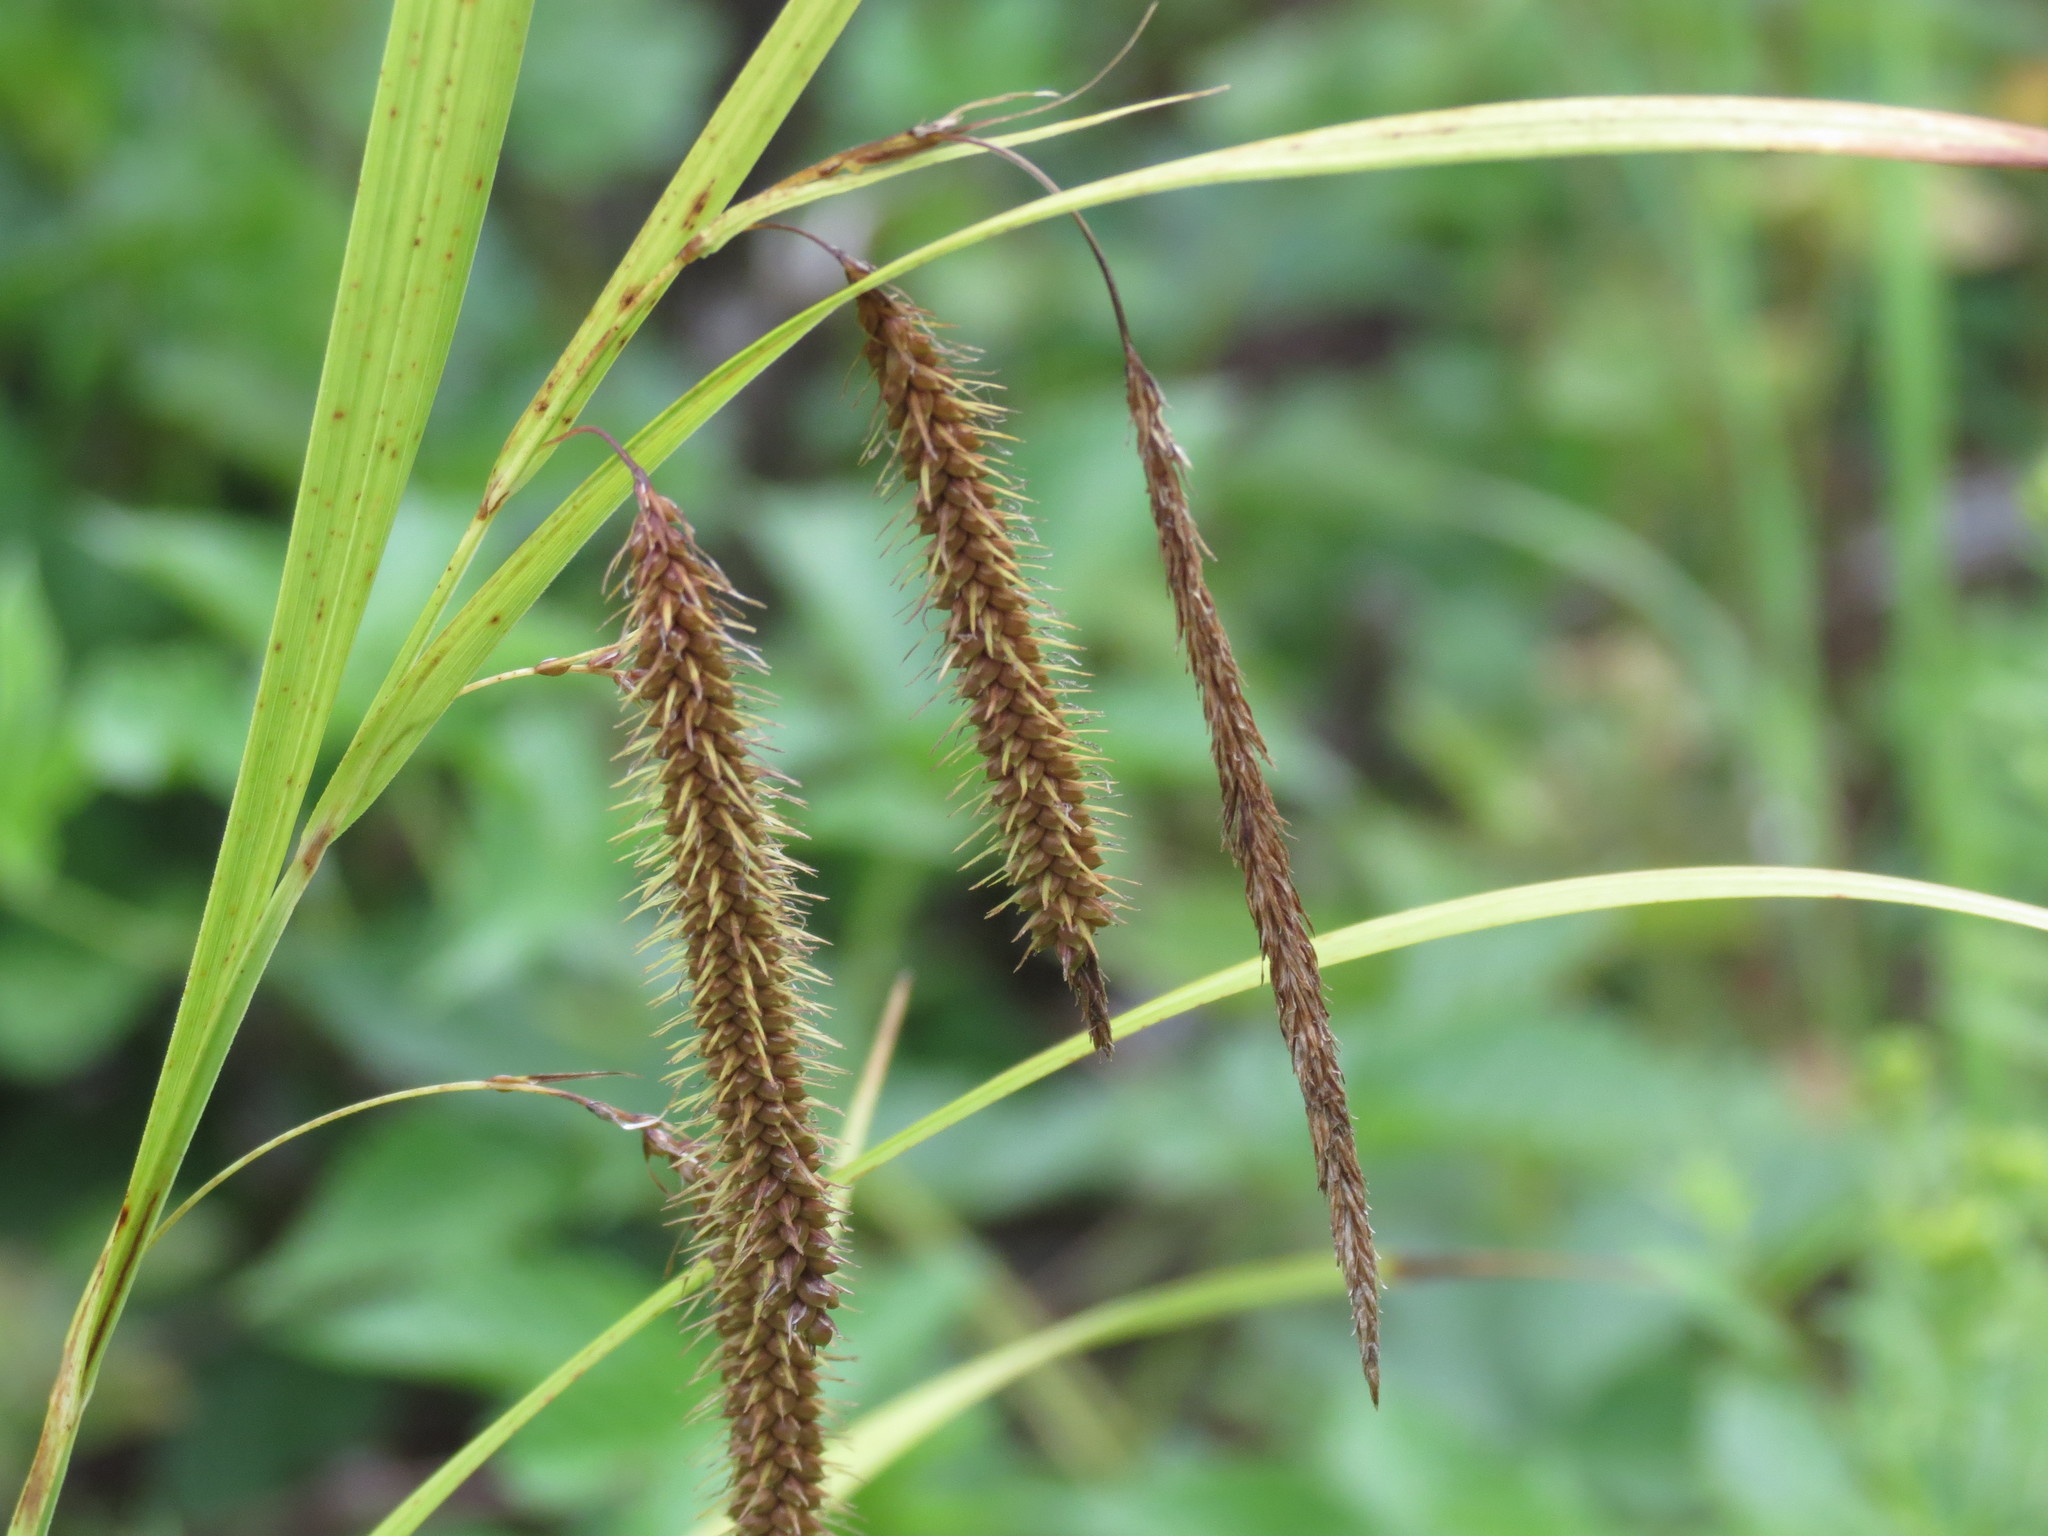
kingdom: Plantae
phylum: Tracheophyta
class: Liliopsida
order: Poales
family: Cyperaceae
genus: Carex
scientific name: Carex crinita
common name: Fringed sedge
